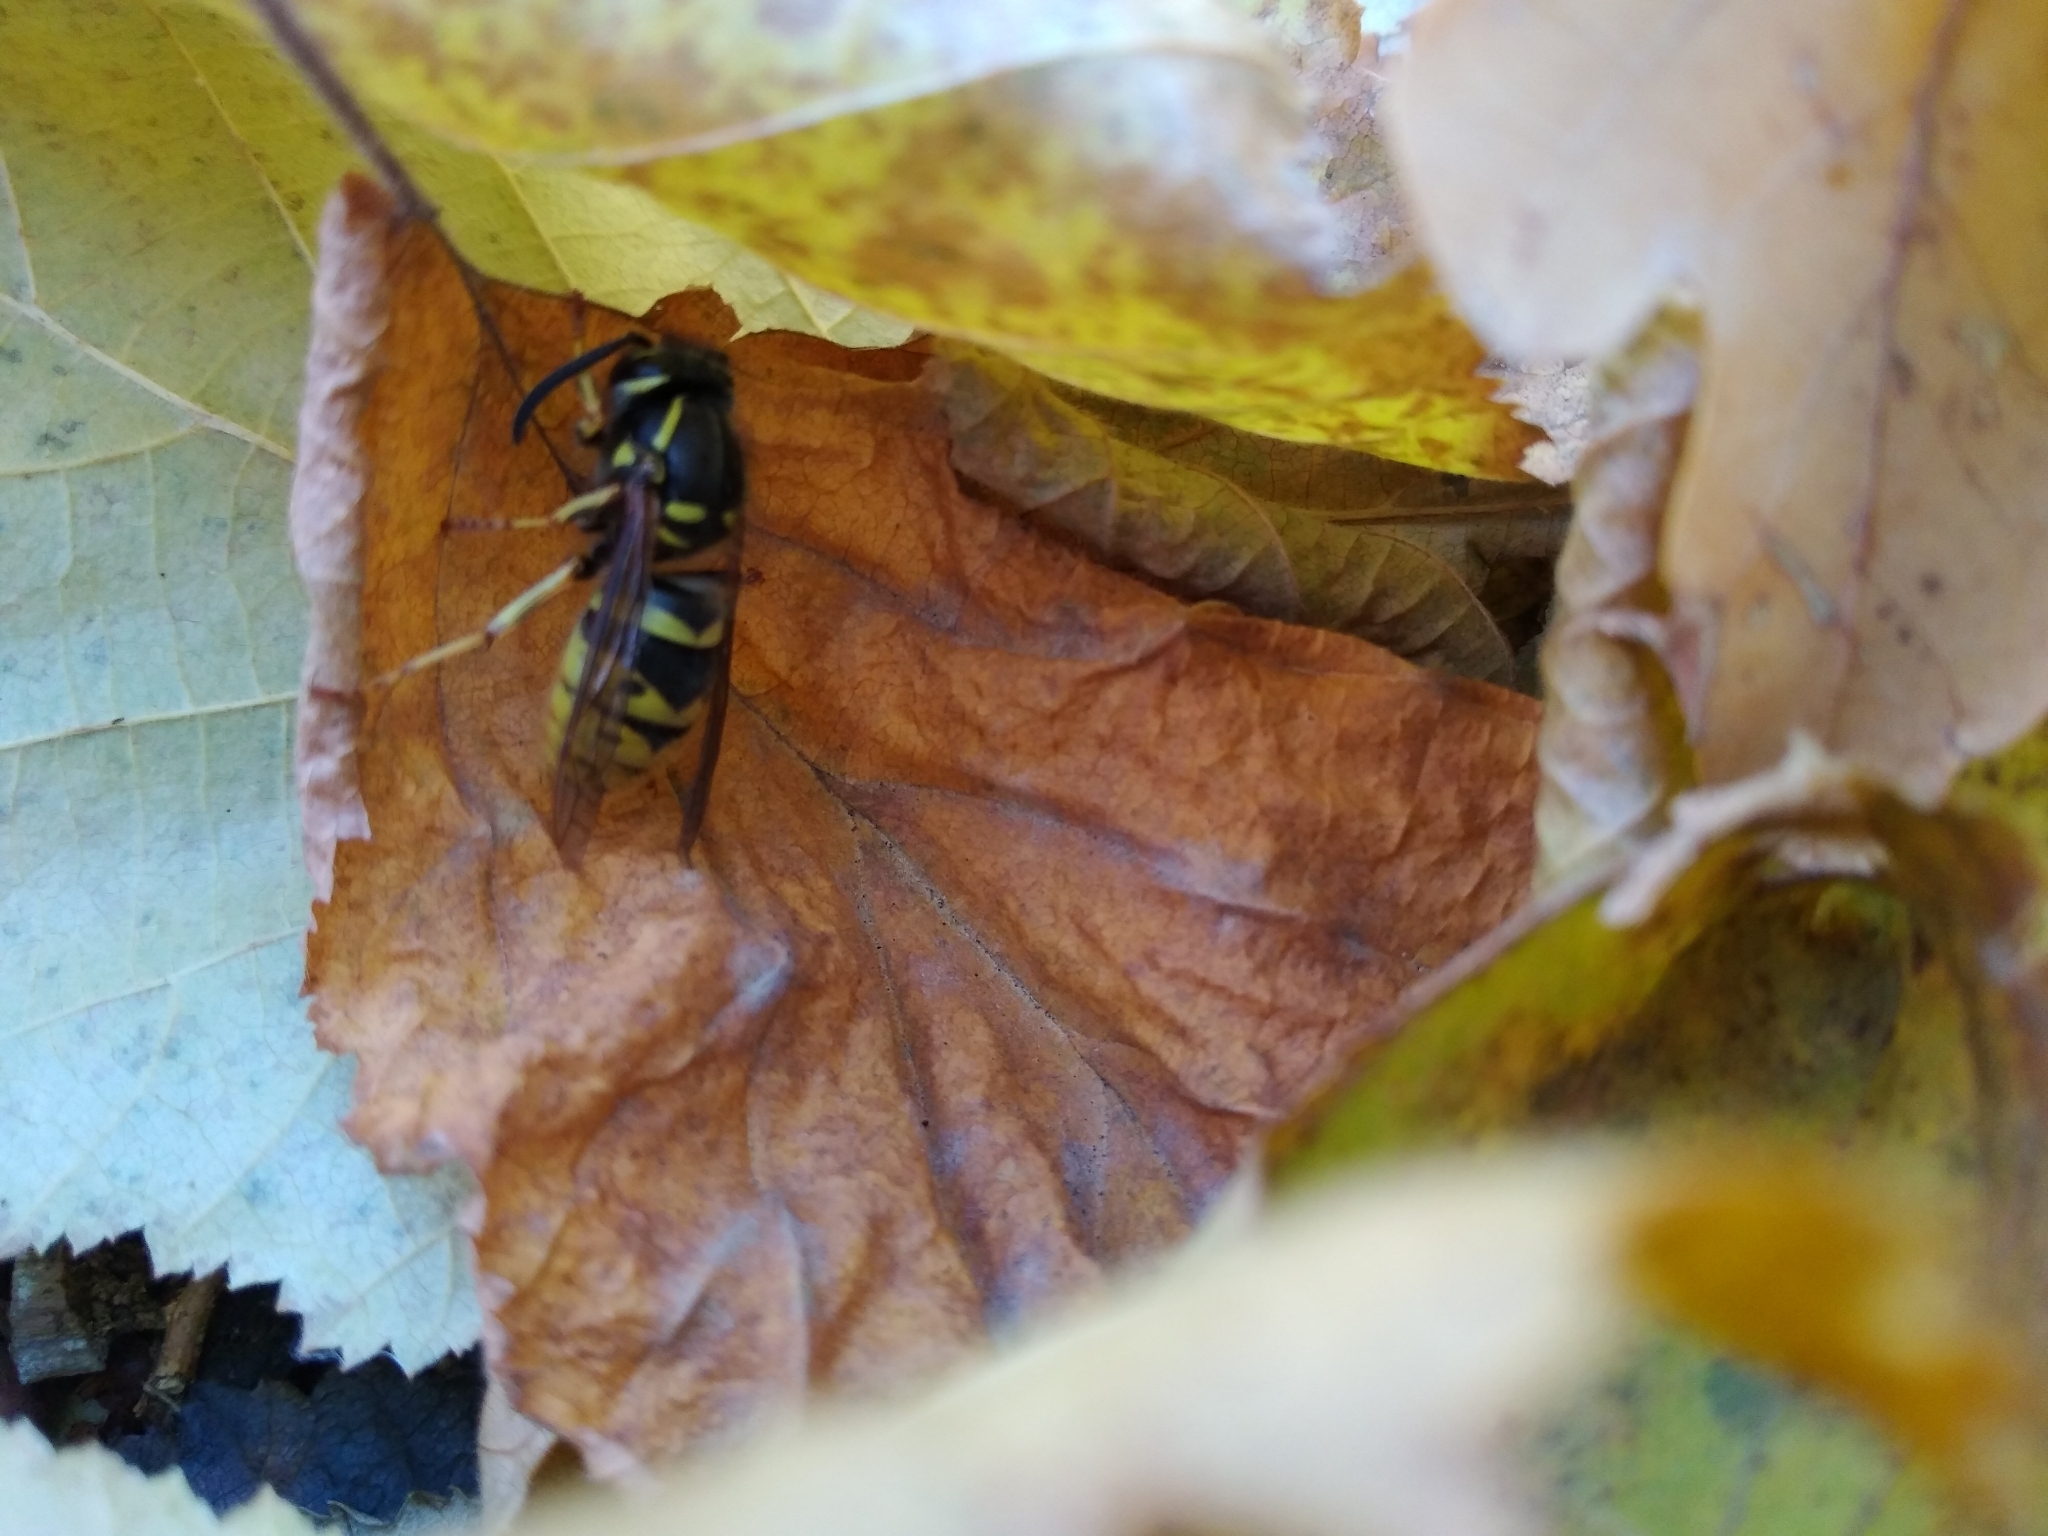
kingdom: Animalia
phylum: Arthropoda
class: Insecta
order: Hymenoptera
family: Vespidae
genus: Vespula
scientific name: Vespula vulgaris
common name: Common wasp
